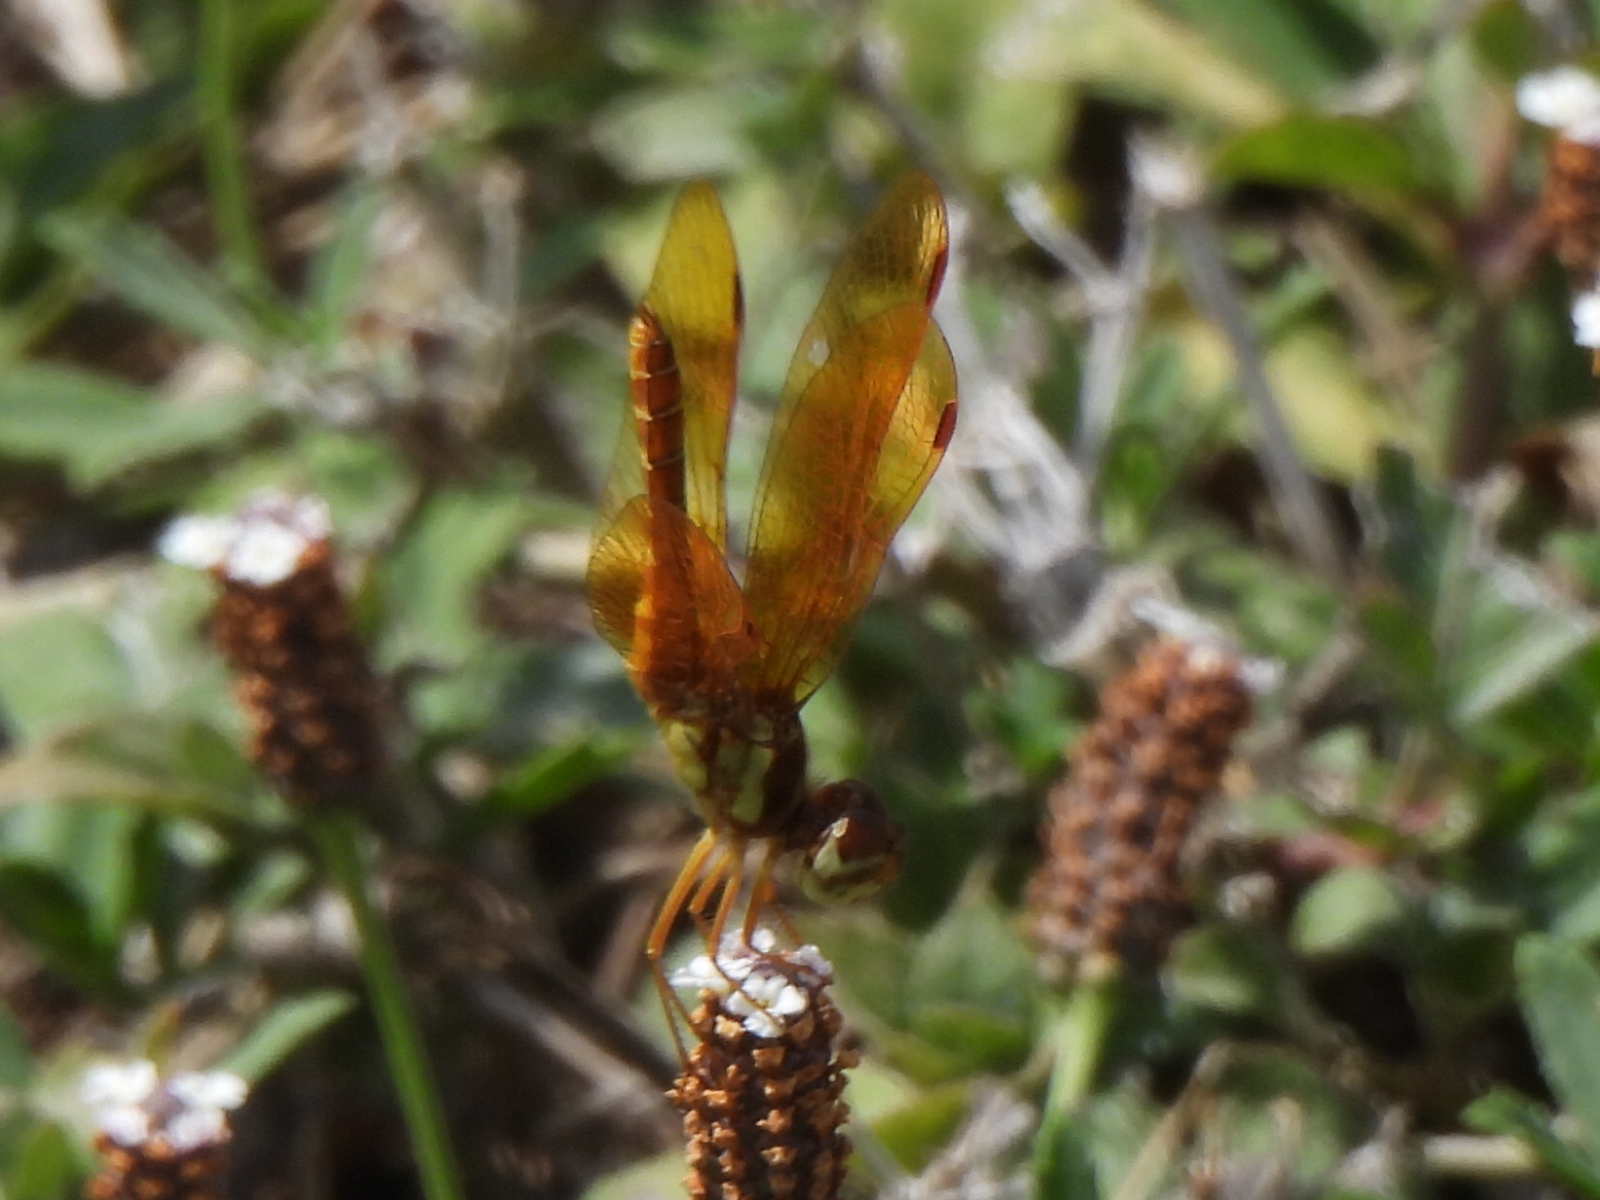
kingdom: Animalia
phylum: Arthropoda
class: Insecta
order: Odonata
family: Libellulidae
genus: Perithemis
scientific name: Perithemis tenera
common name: Eastern amberwing
